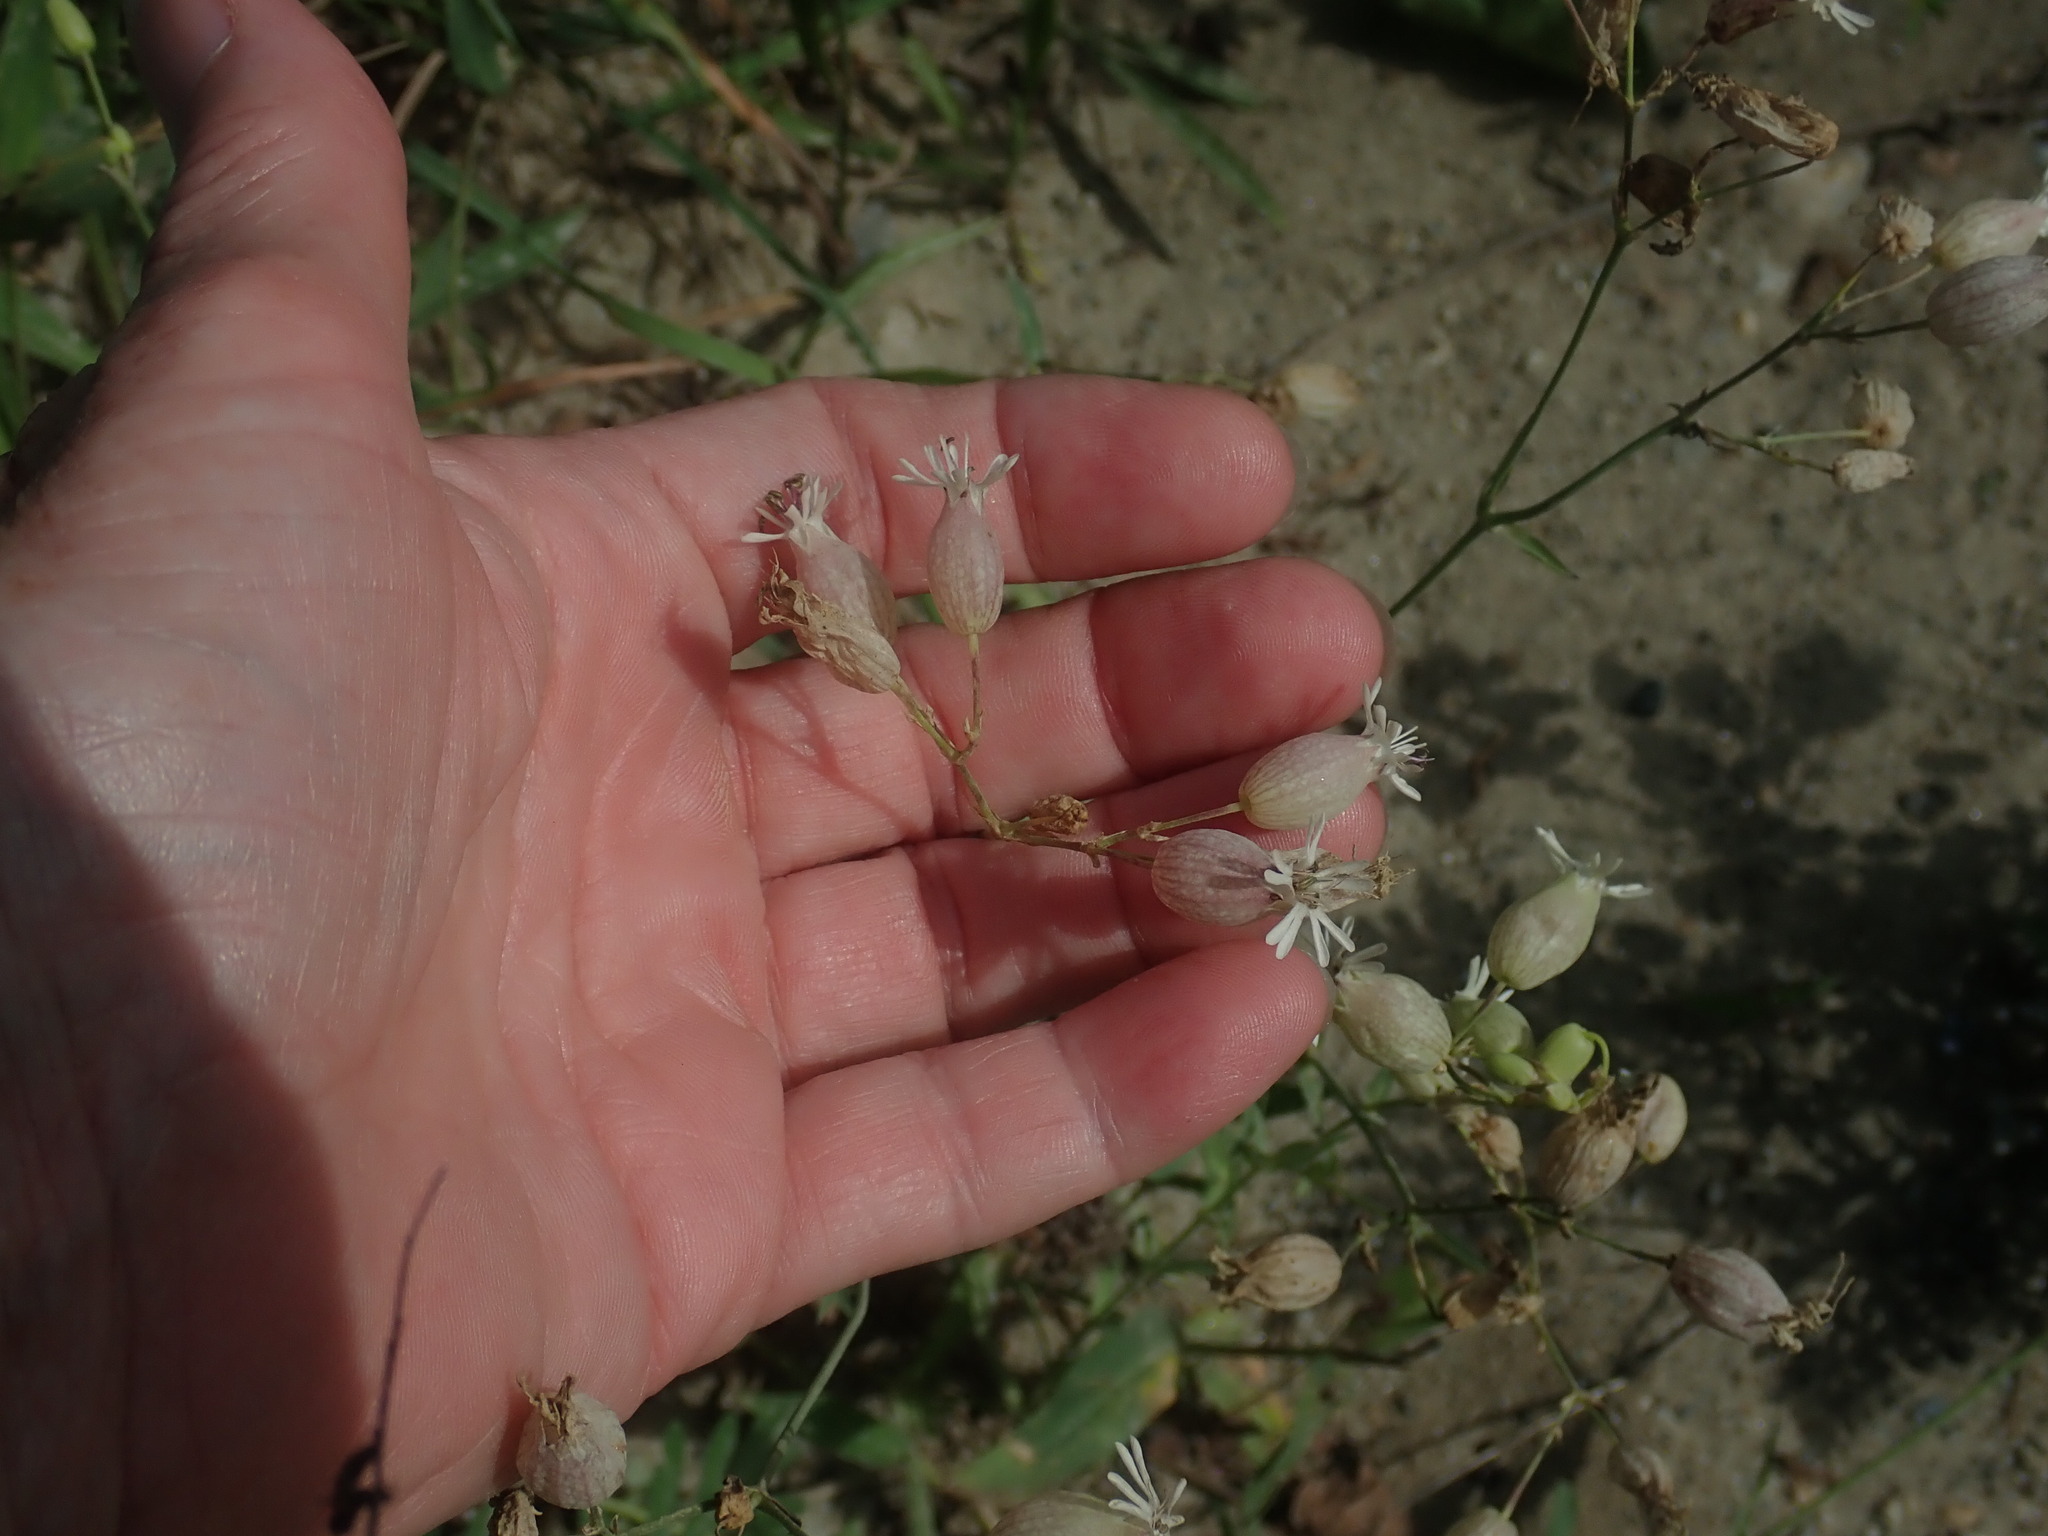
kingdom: Plantae
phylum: Tracheophyta
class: Magnoliopsida
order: Caryophyllales
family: Caryophyllaceae
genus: Silene
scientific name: Silene vulgaris
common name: Bladder campion
